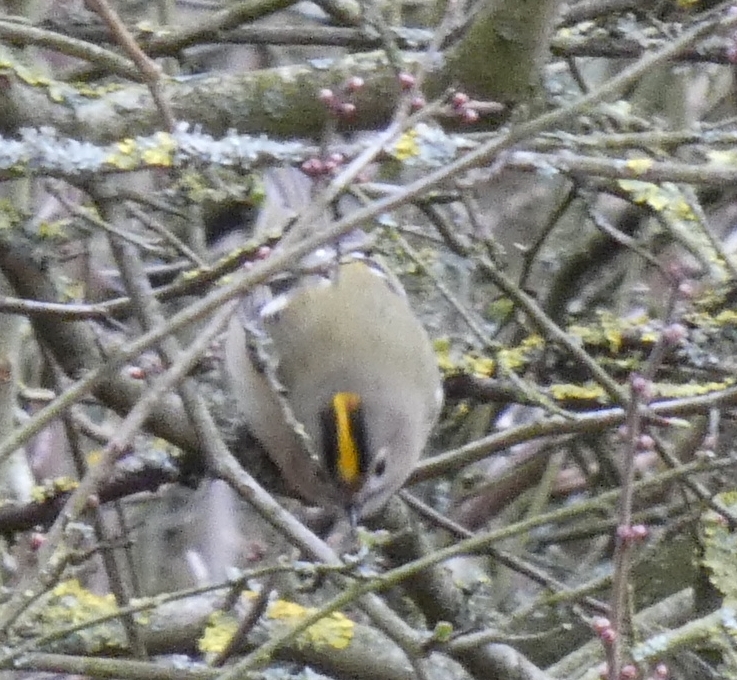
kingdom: Animalia
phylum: Chordata
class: Aves
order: Passeriformes
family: Regulidae
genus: Regulus
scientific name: Regulus regulus
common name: Goldcrest
